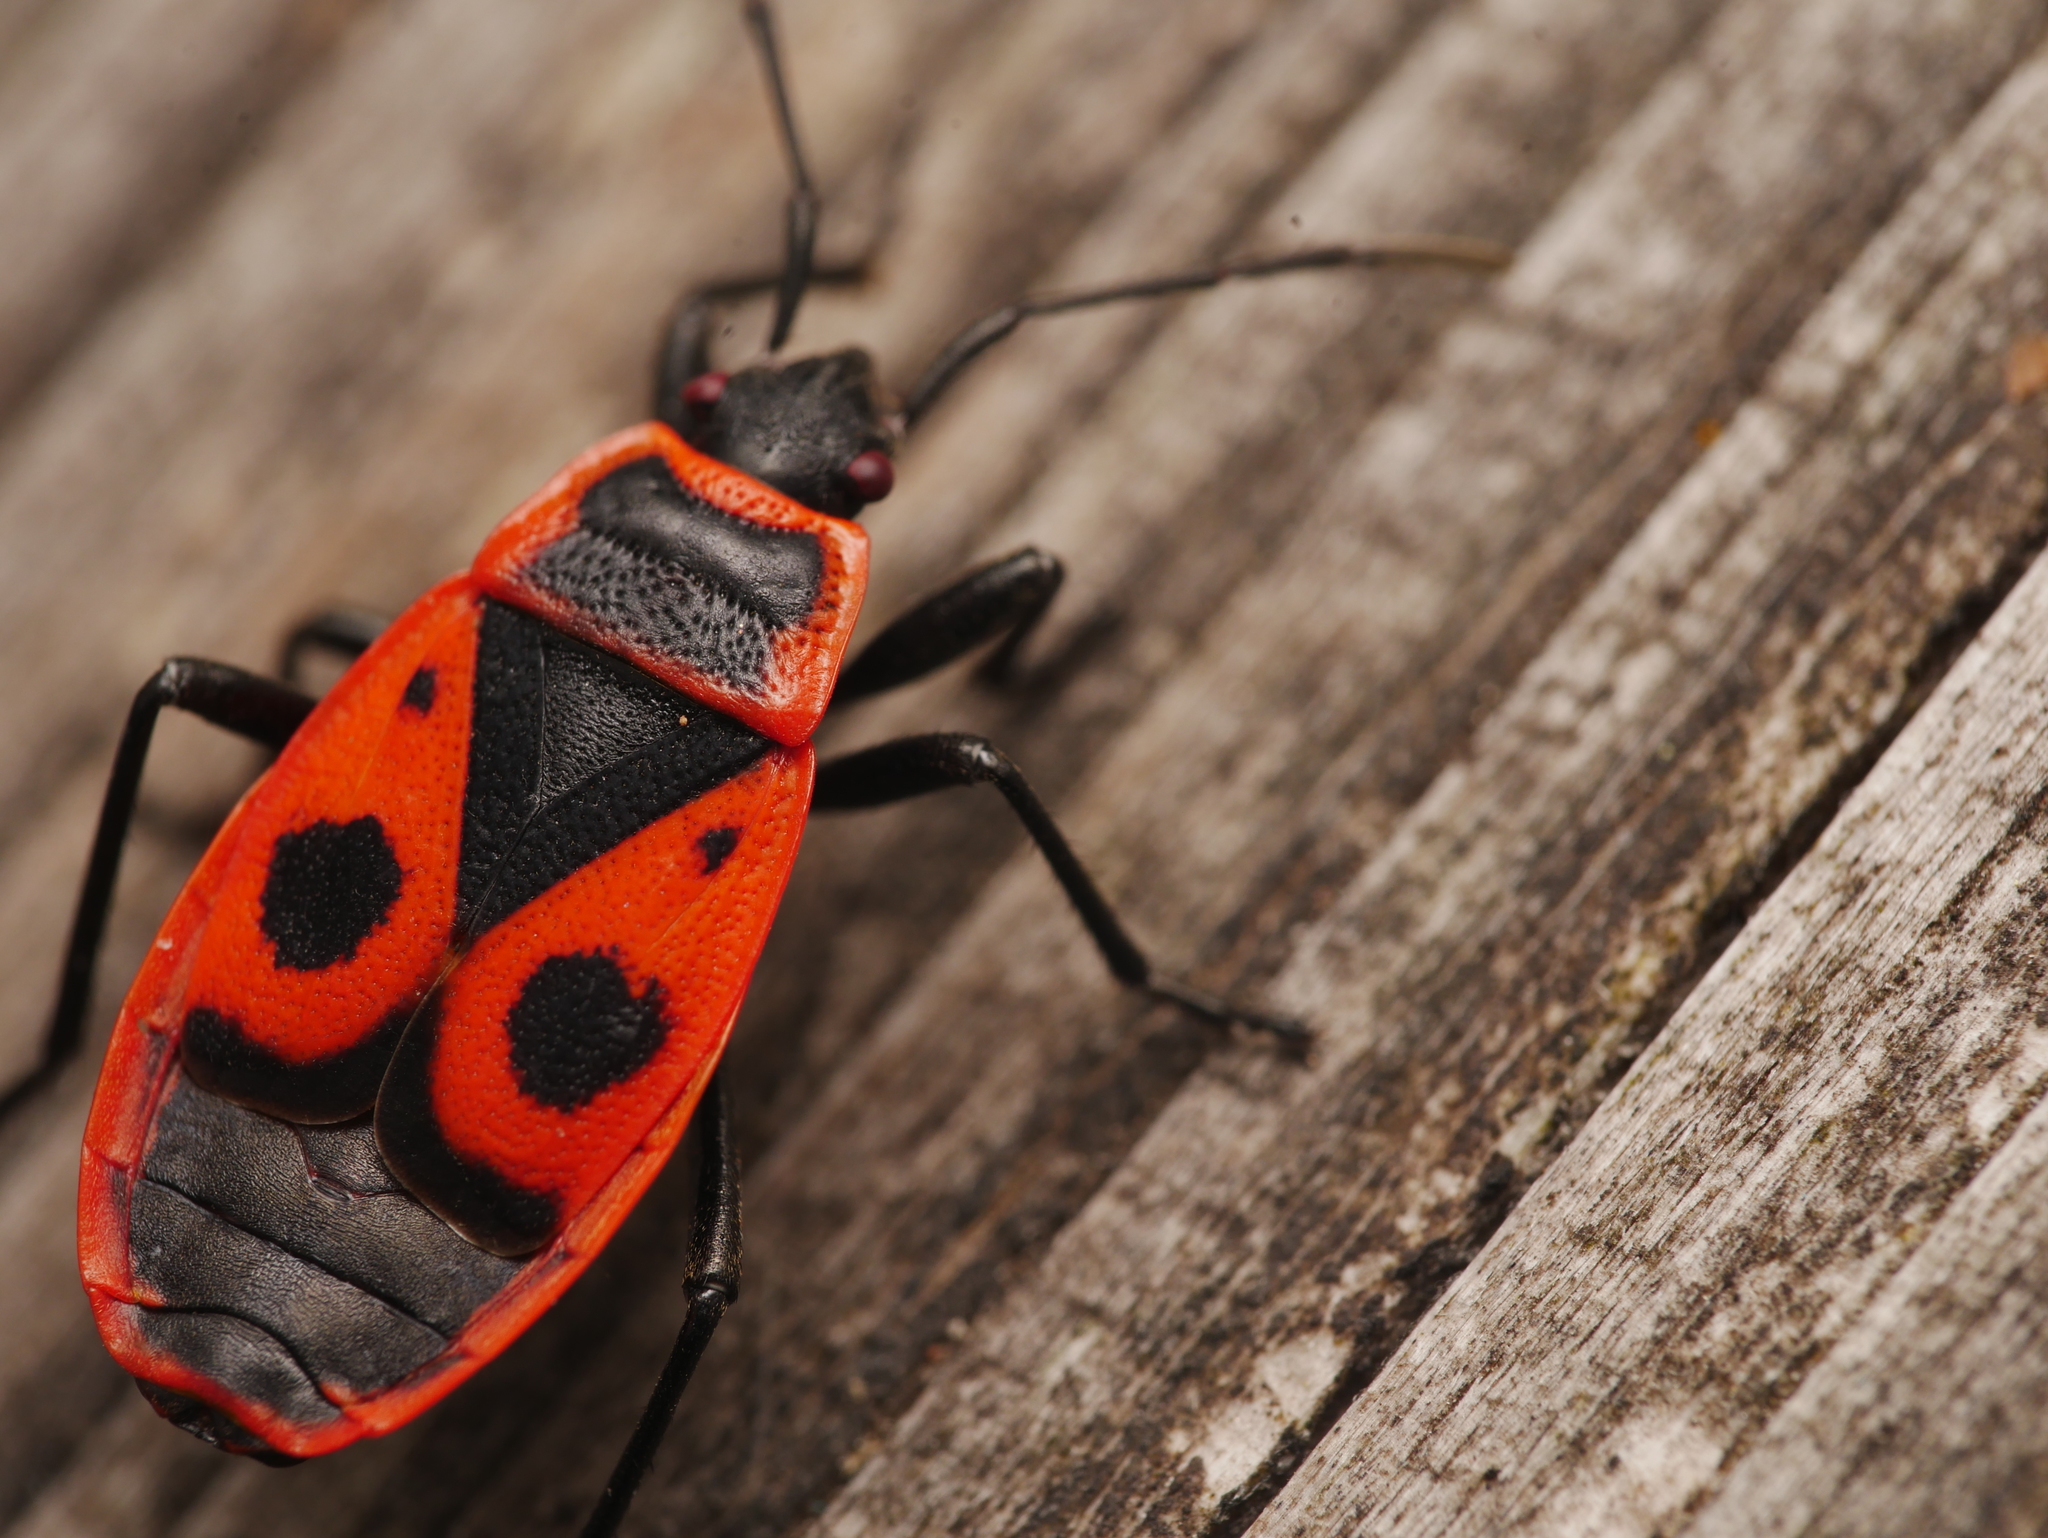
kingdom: Animalia
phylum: Arthropoda
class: Insecta
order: Hemiptera
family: Pyrrhocoridae
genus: Pyrrhocoris
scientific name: Pyrrhocoris apterus
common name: Firebug
